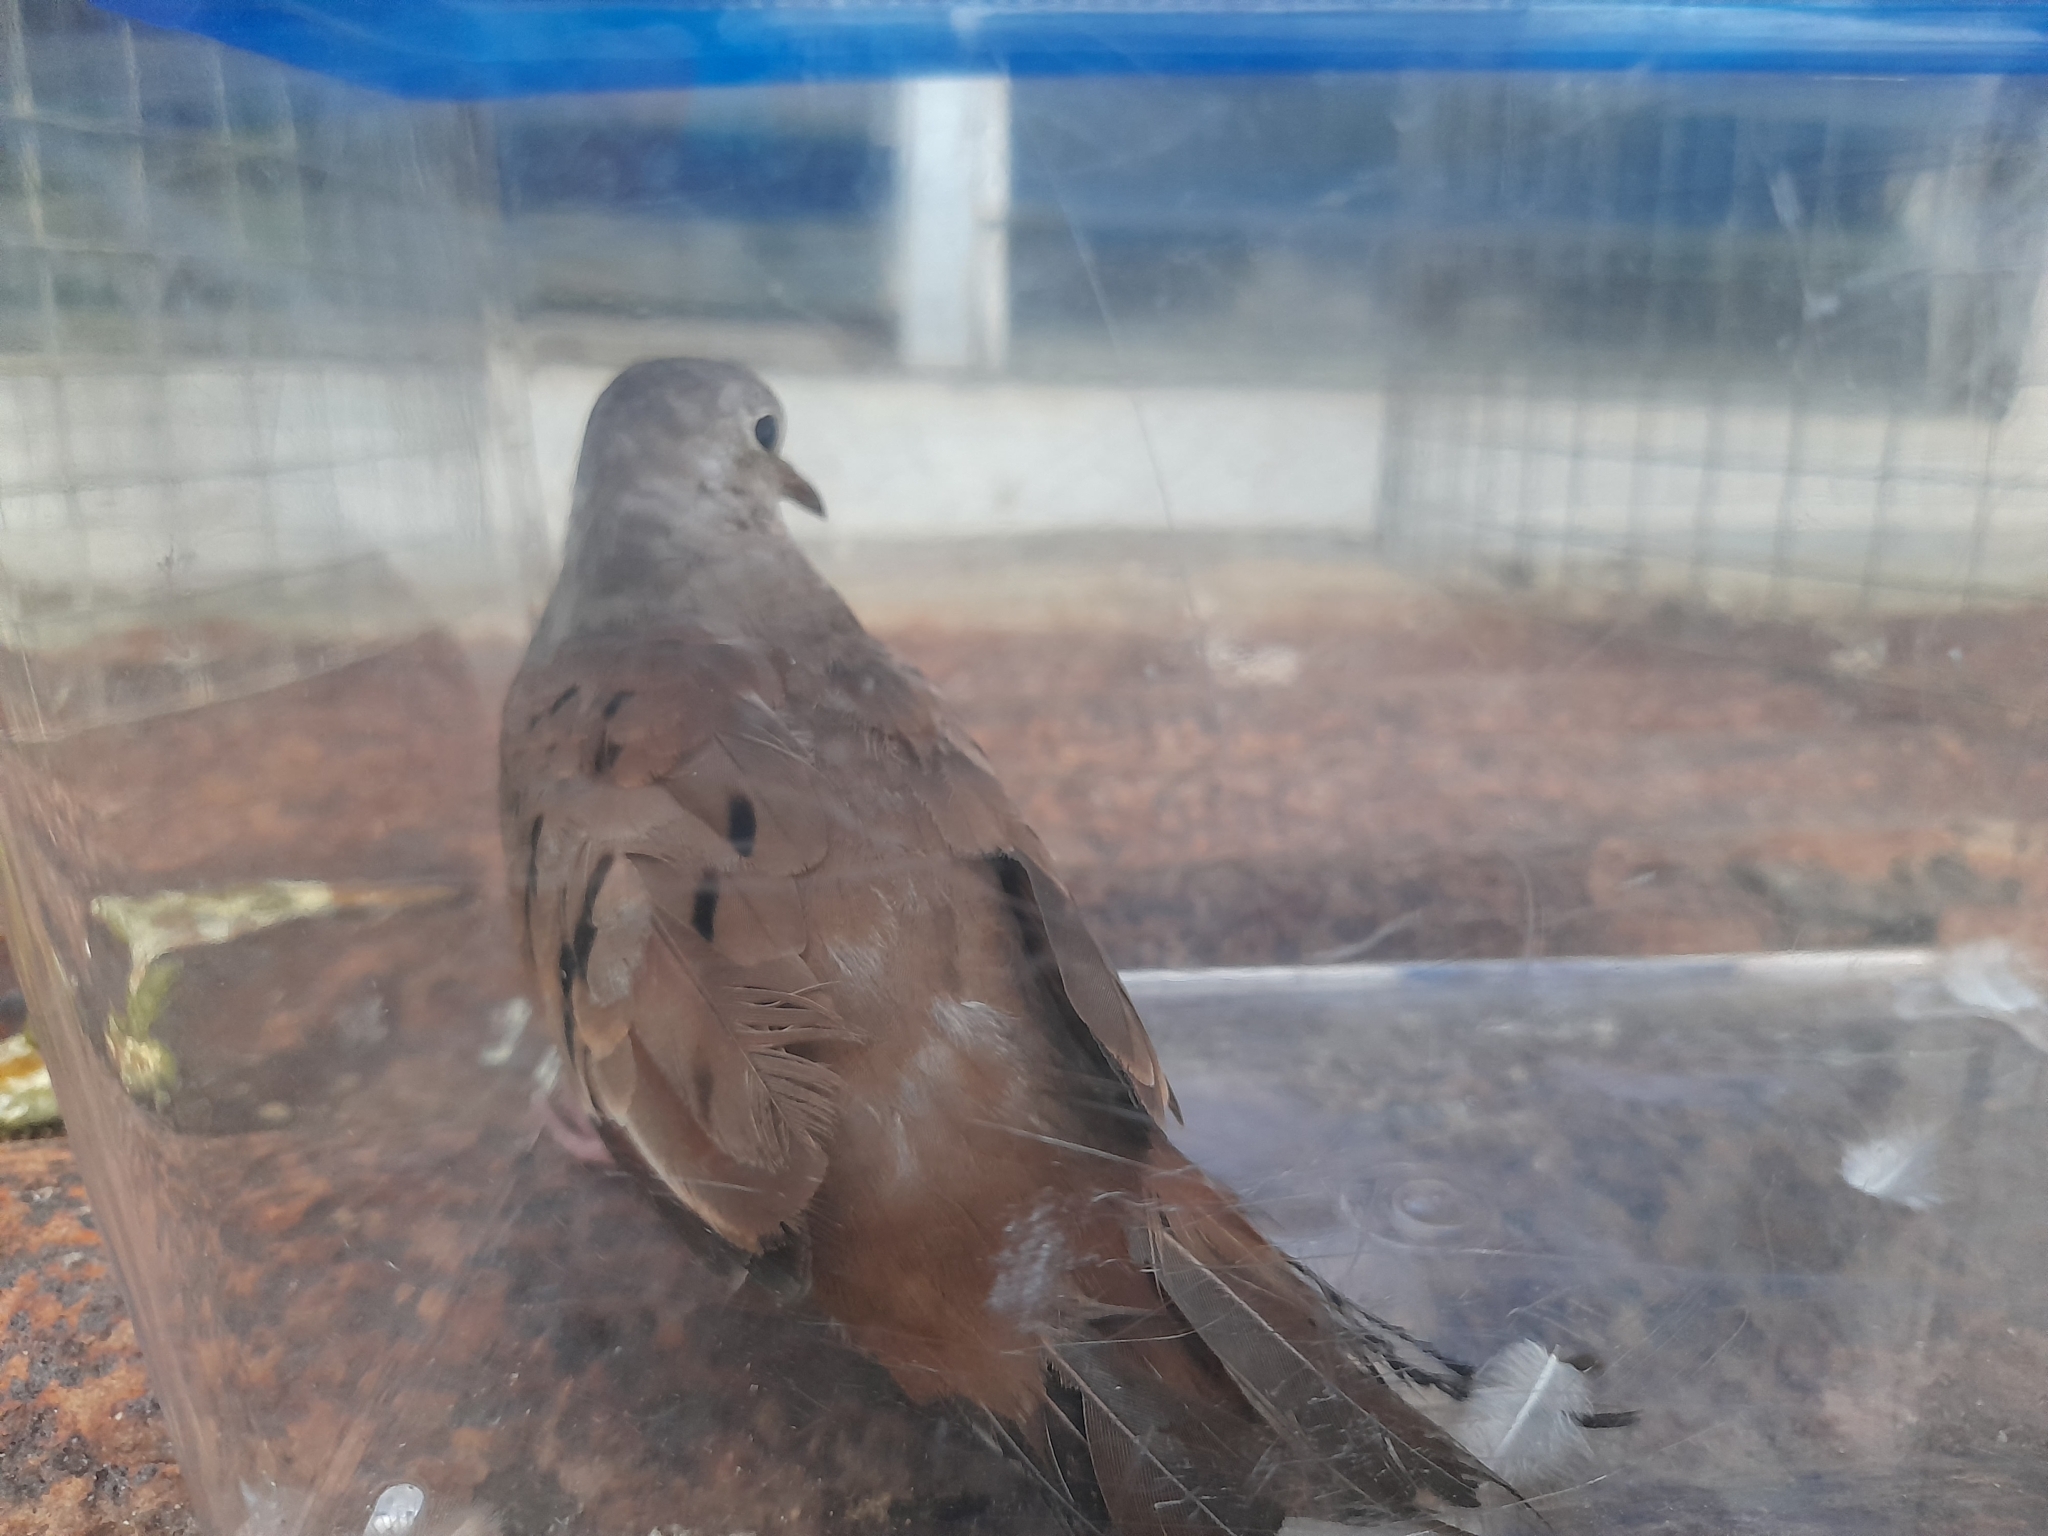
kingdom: Animalia
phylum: Chordata
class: Aves
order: Columbiformes
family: Columbidae
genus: Columbina
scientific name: Columbina talpacoti
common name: Ruddy ground dove
